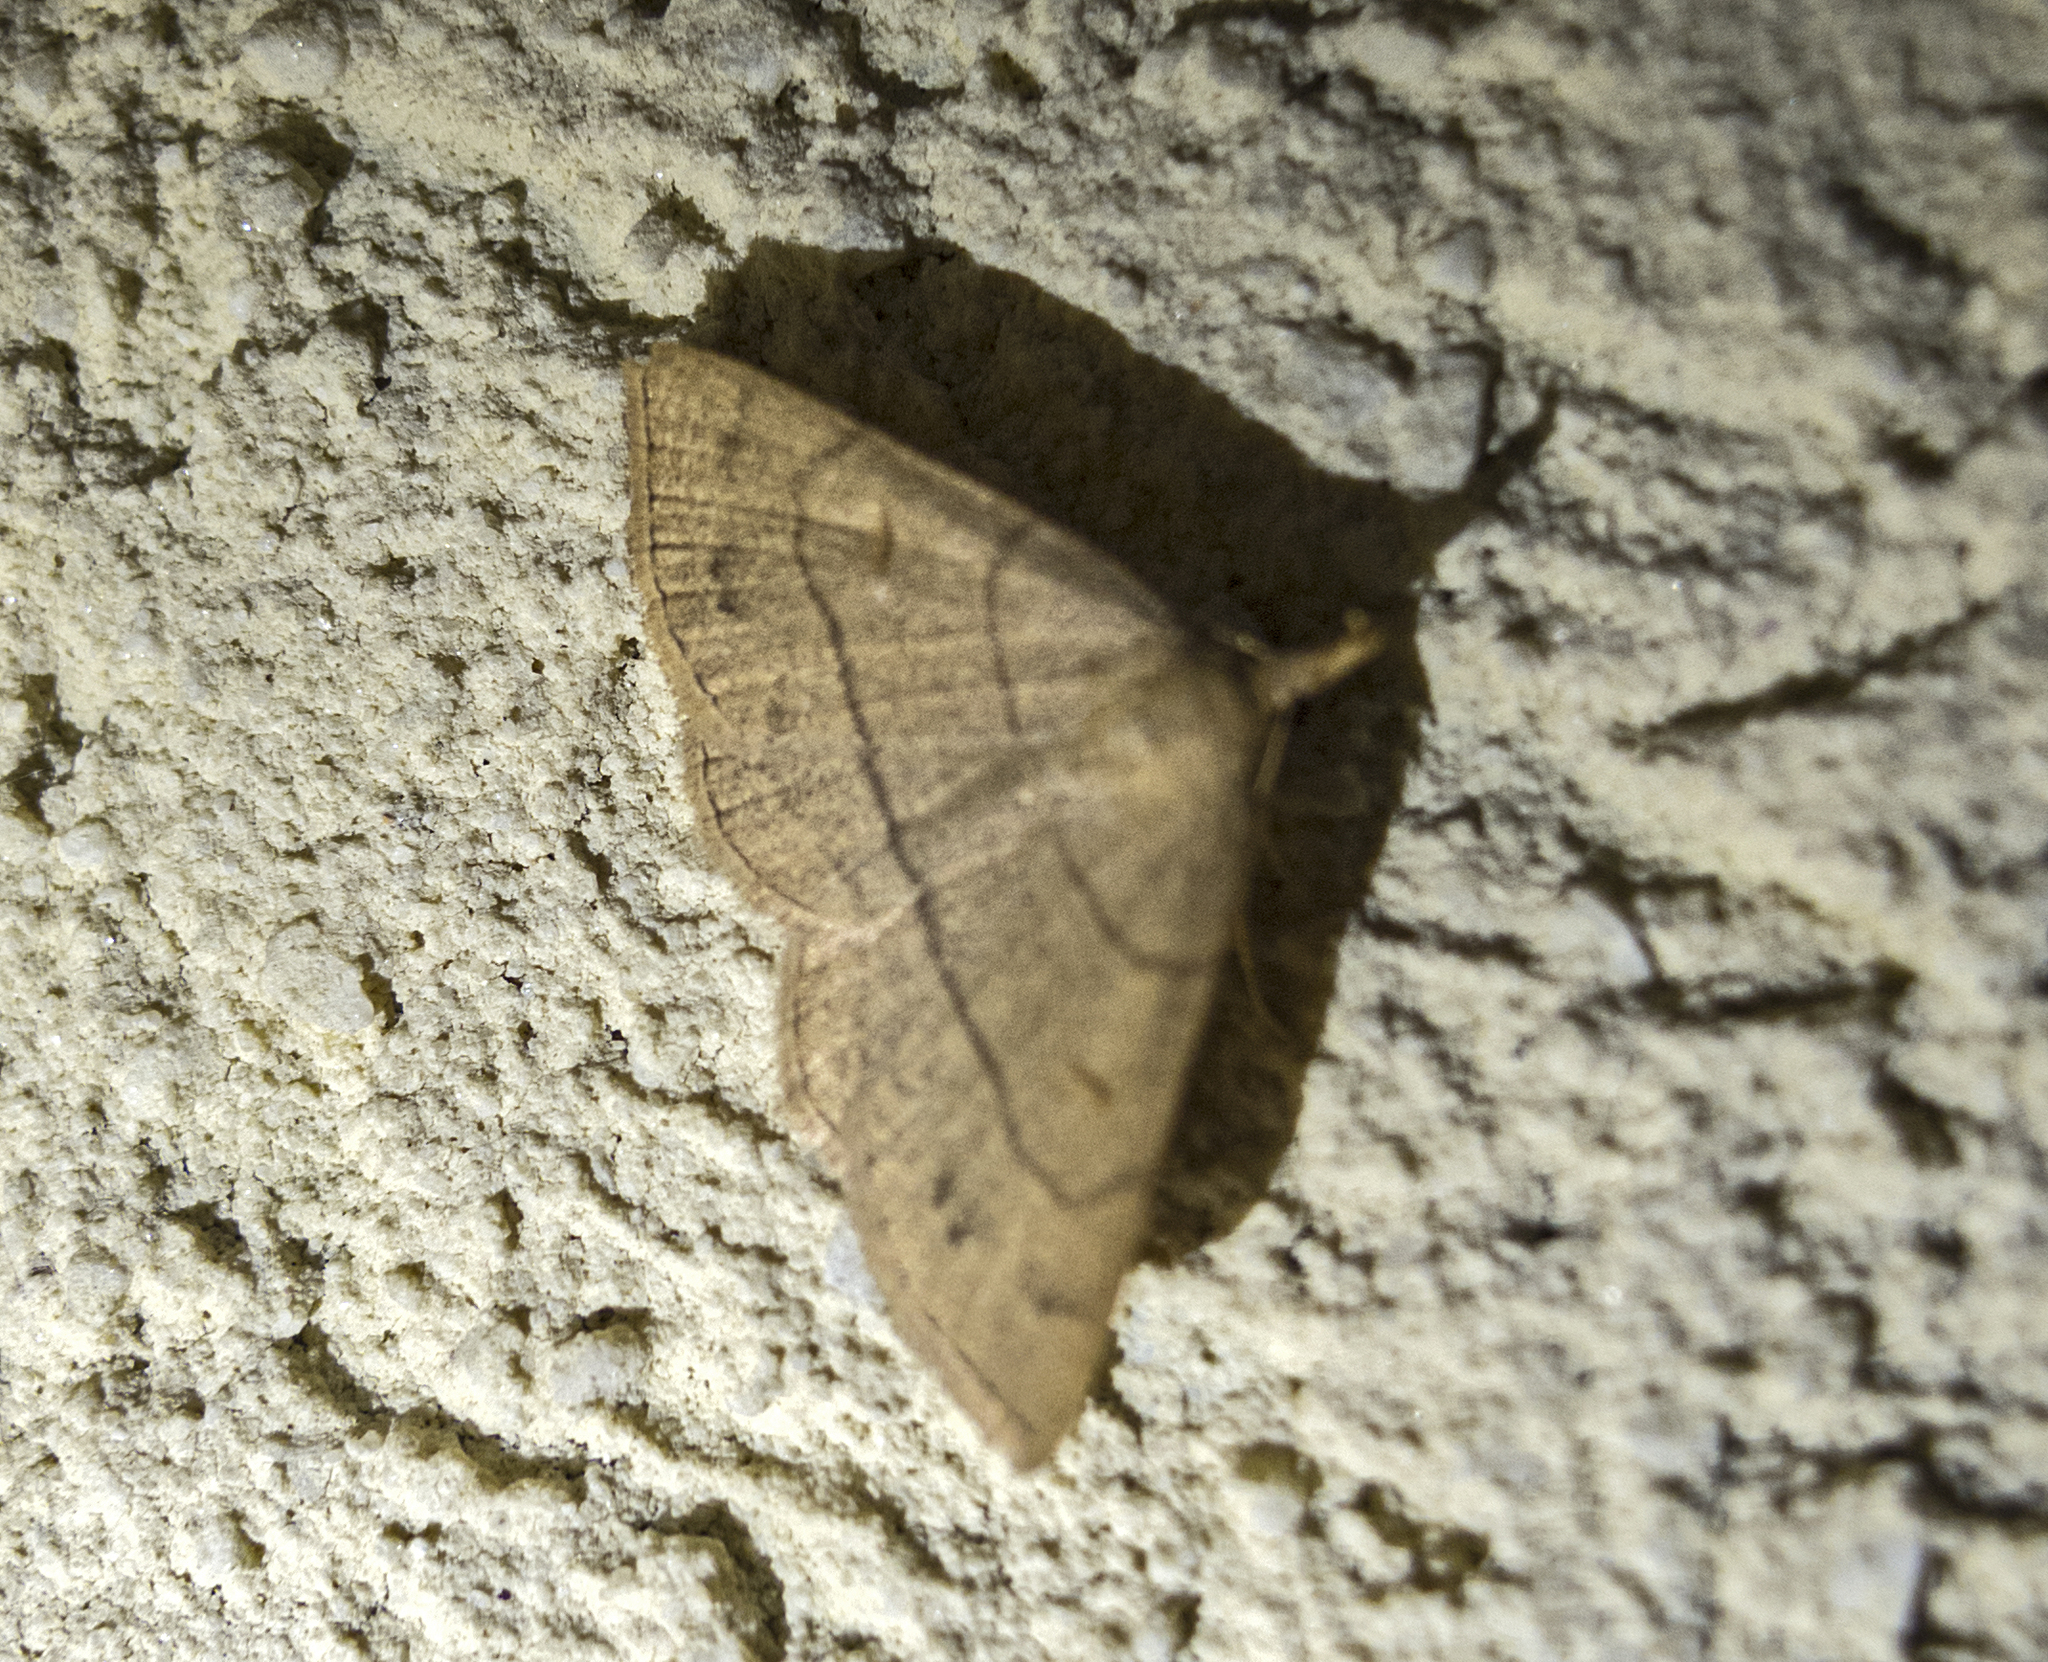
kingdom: Animalia
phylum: Arthropoda
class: Insecta
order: Lepidoptera
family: Erebidae
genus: Paracolax
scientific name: Paracolax tristalis
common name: Clay fan-foot
